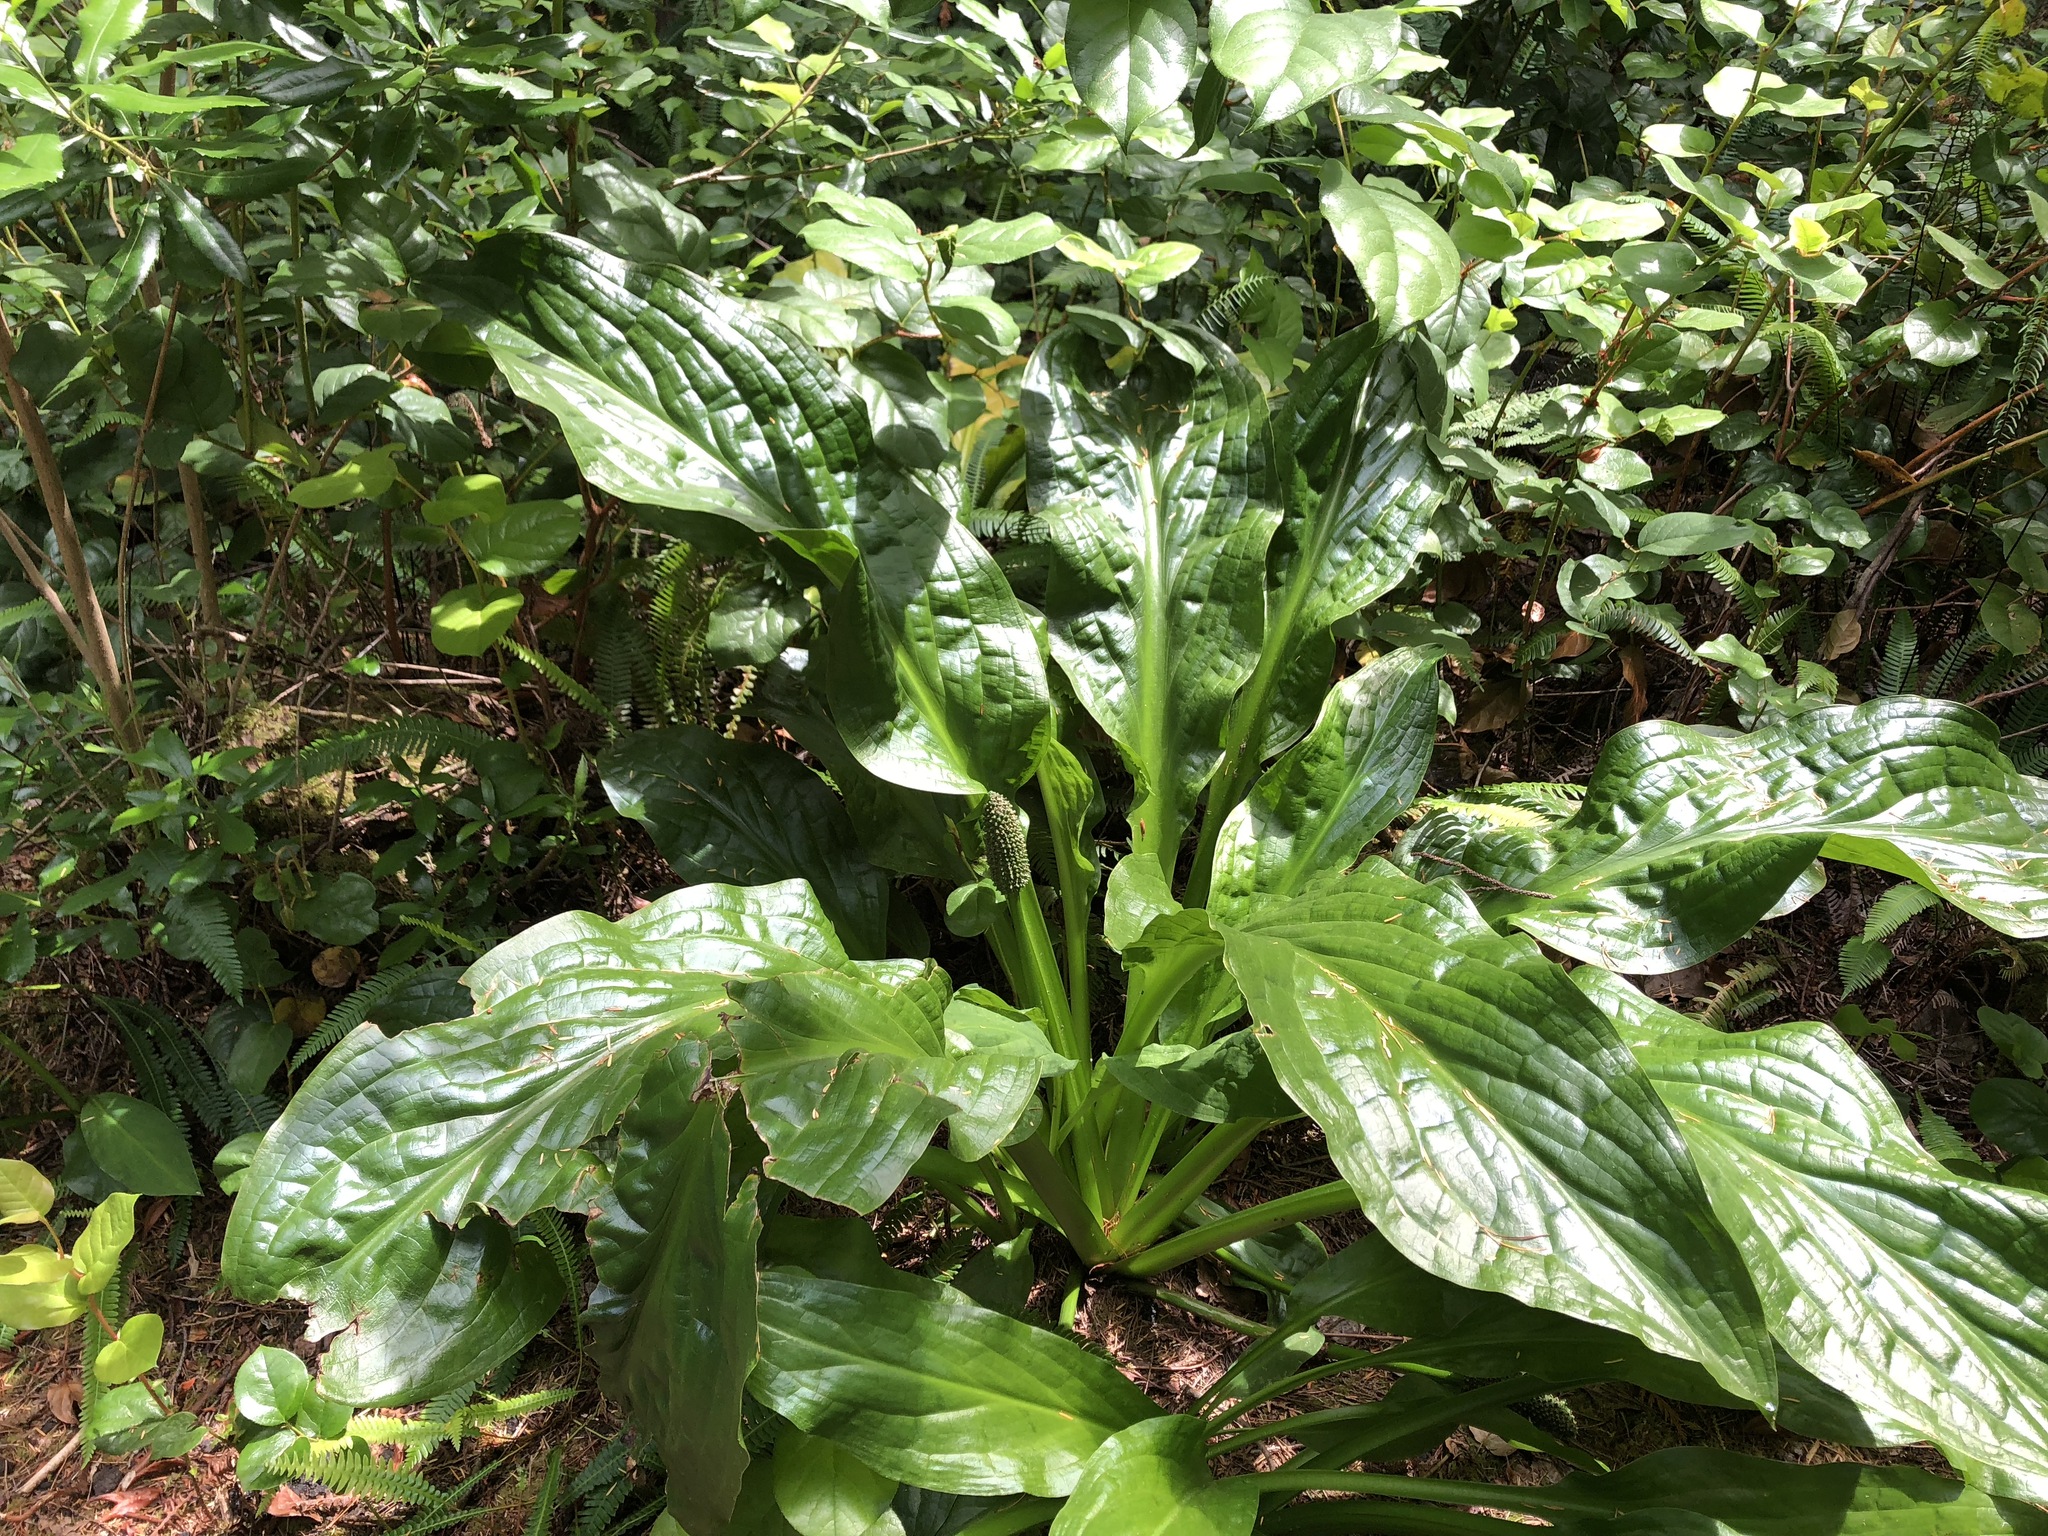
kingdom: Plantae
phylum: Tracheophyta
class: Liliopsida
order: Alismatales
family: Araceae
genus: Lysichiton
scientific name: Lysichiton americanus
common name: American skunk cabbage
